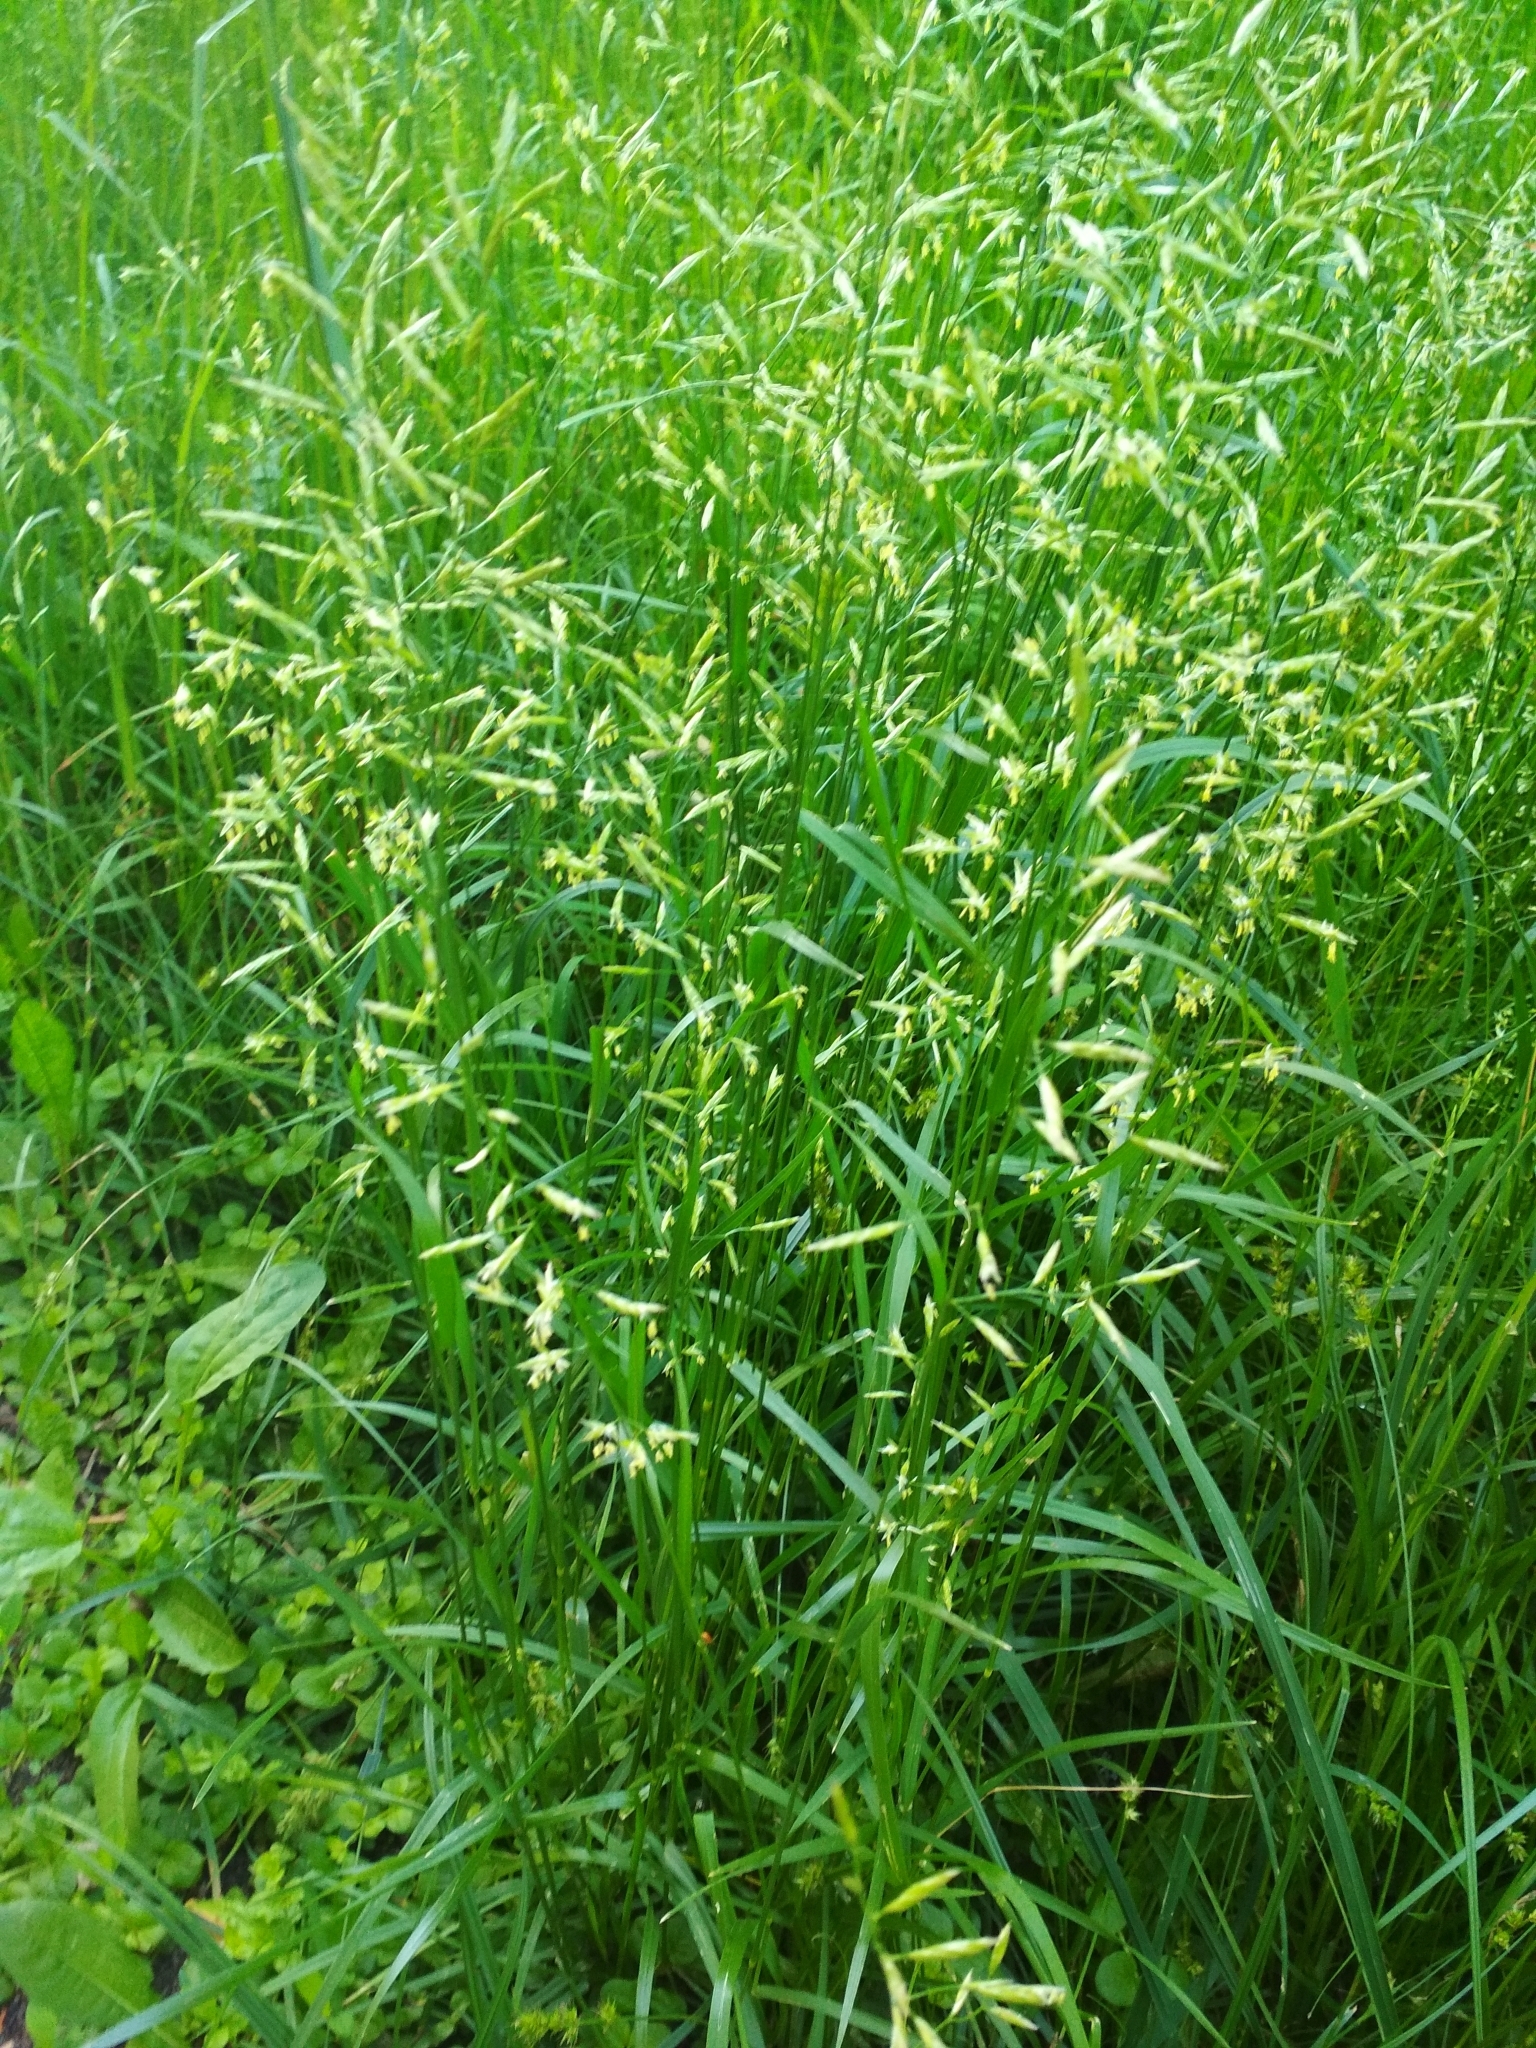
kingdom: Plantae
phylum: Tracheophyta
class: Liliopsida
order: Poales
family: Poaceae
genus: Lolium
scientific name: Lolium pratense
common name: Dover grass
